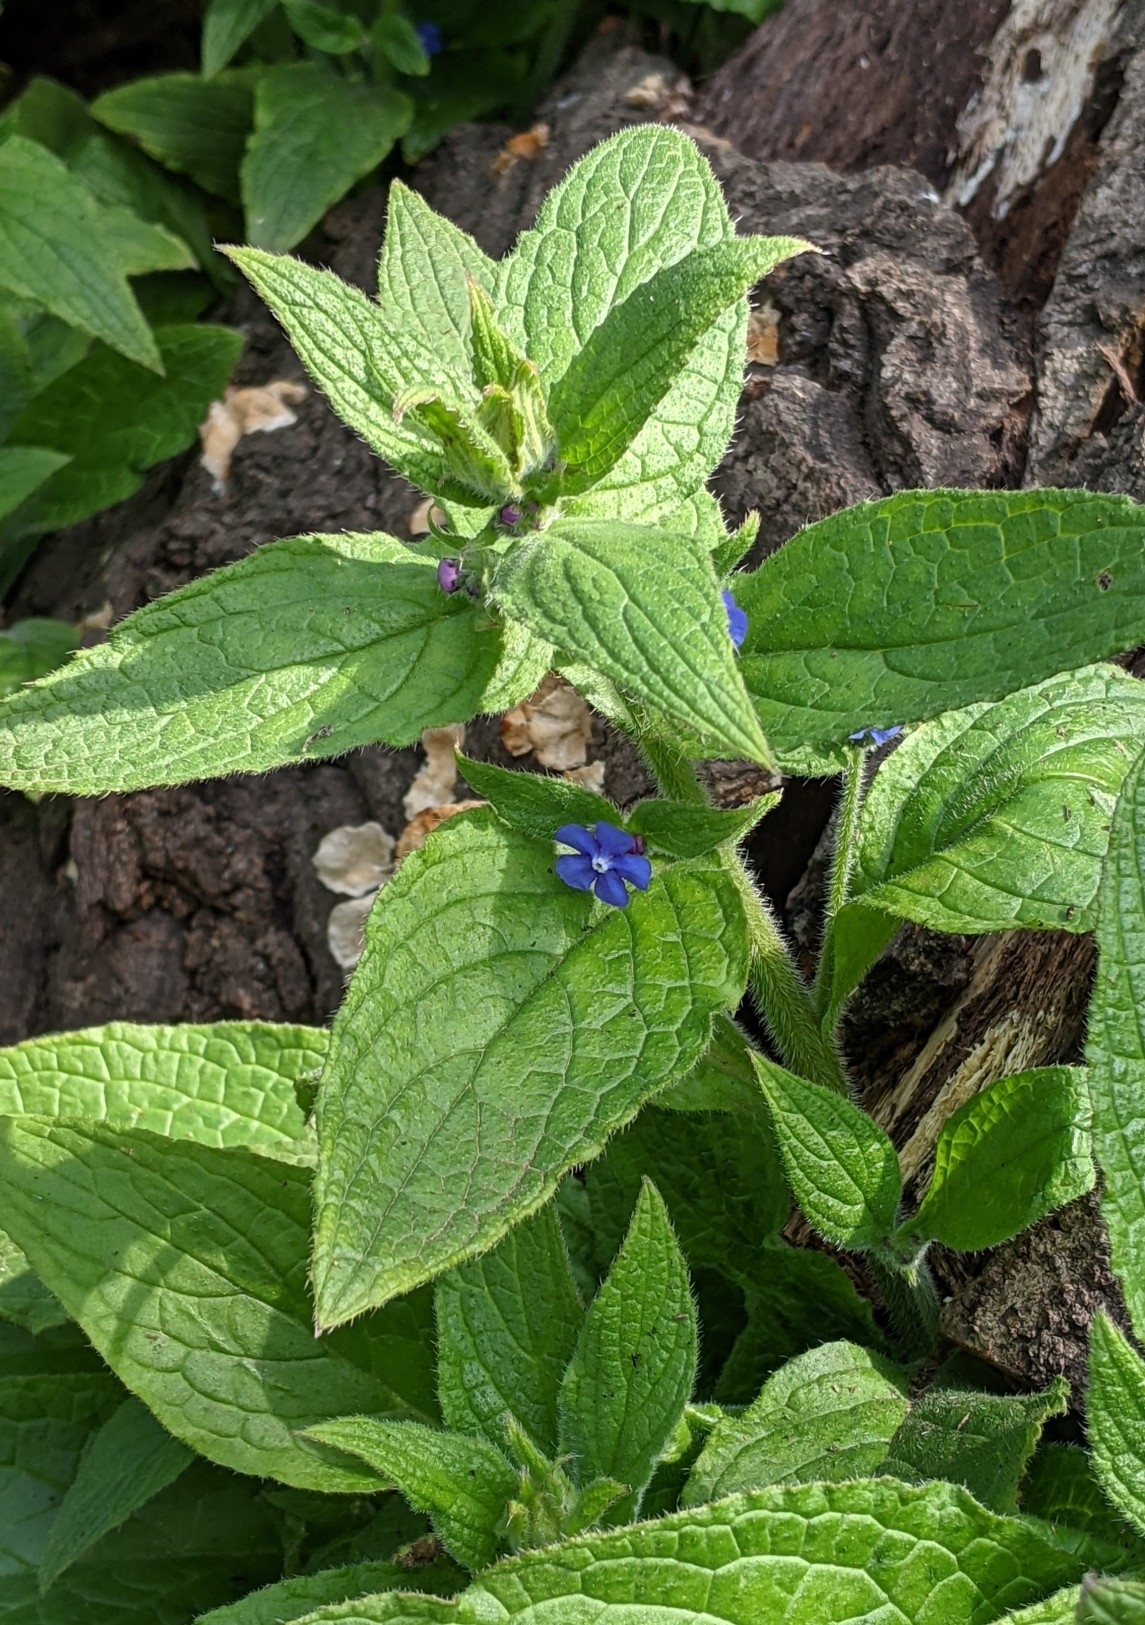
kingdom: Plantae
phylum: Tracheophyta
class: Magnoliopsida
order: Boraginales
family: Boraginaceae
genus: Pentaglottis
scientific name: Pentaglottis sempervirens
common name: Green alkanet
